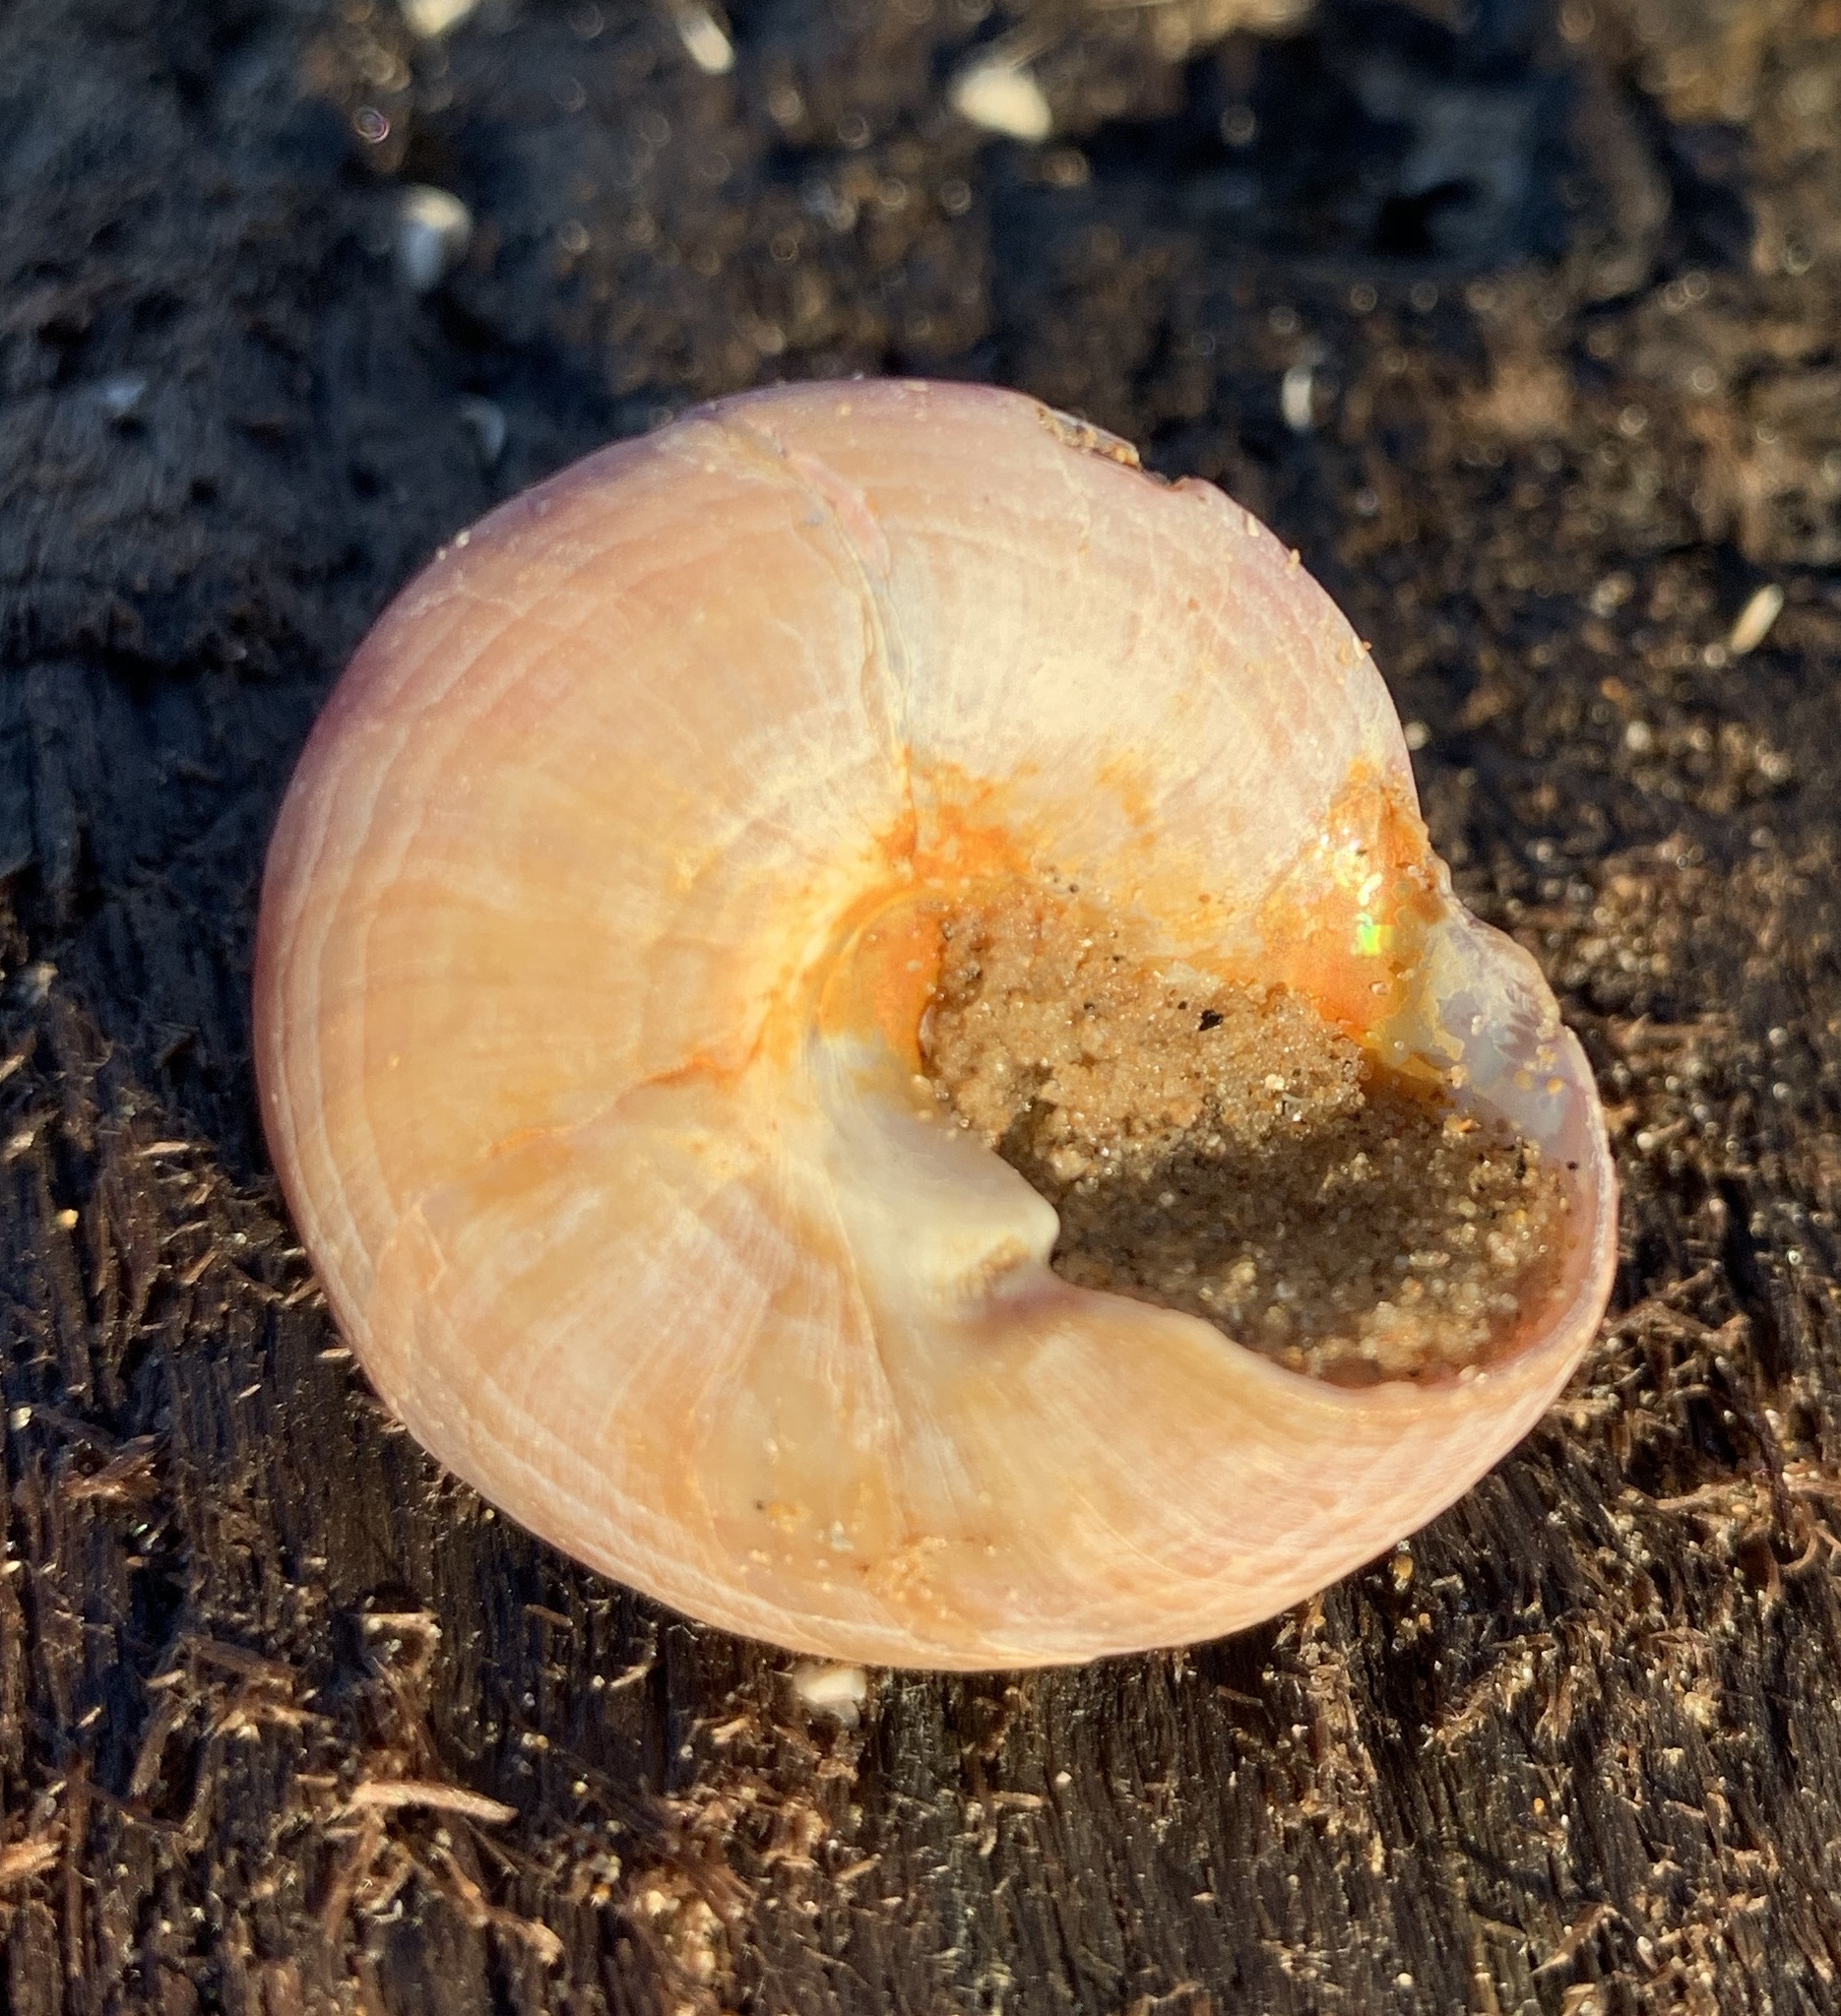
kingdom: Animalia
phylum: Mollusca
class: Gastropoda
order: Trochida
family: Calliostomatidae
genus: Calliostoma
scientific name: Calliostoma zizyphinum
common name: Painted top shell
